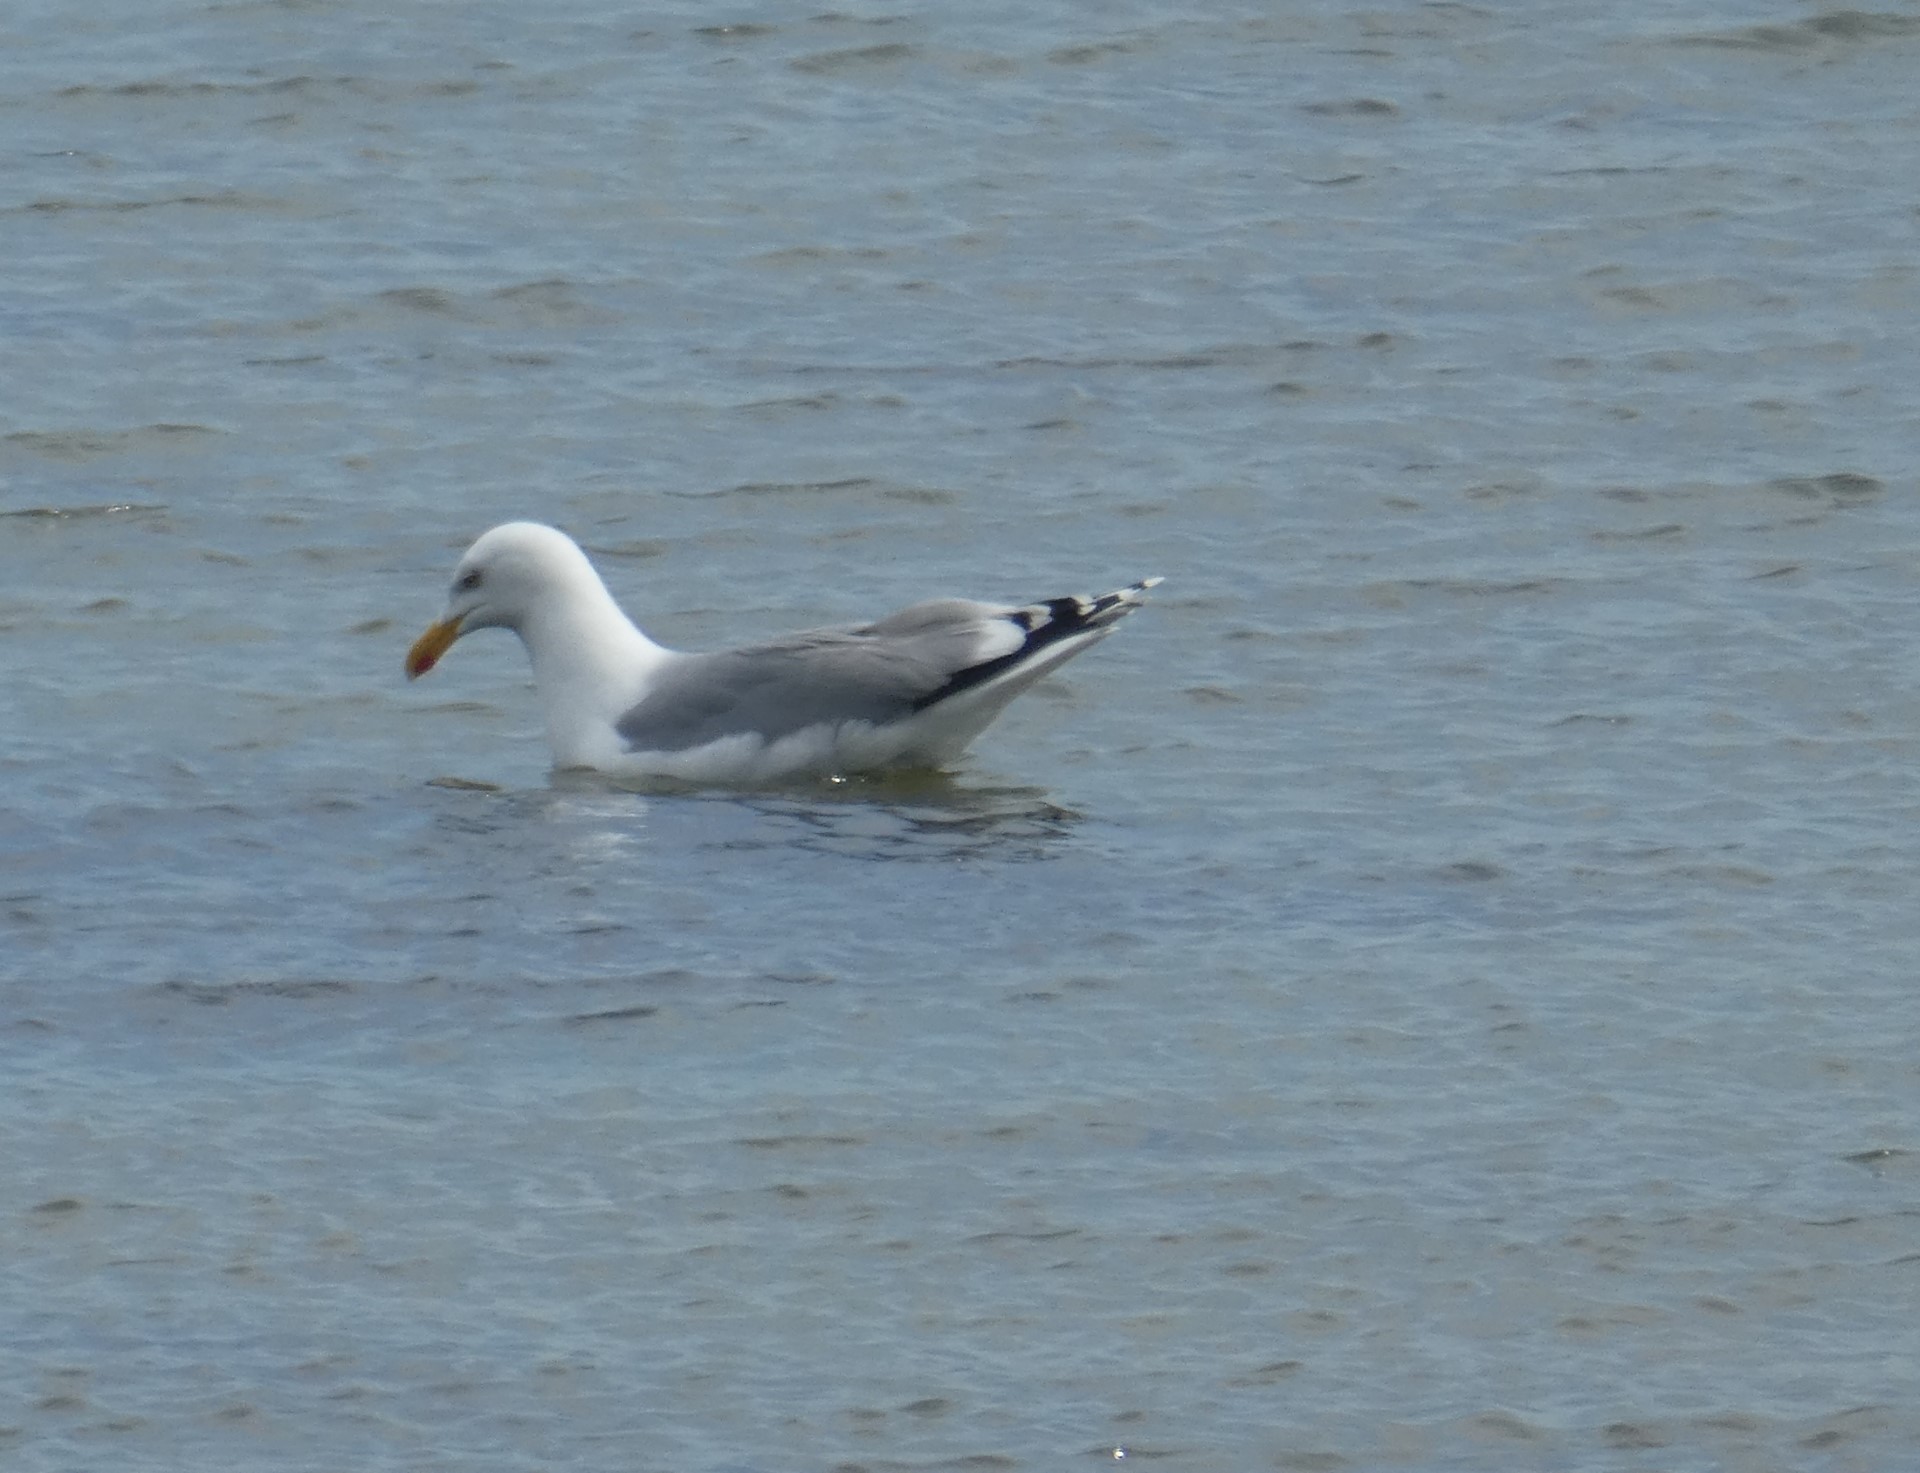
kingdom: Animalia
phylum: Chordata
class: Aves
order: Charadriiformes
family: Laridae
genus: Larus
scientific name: Larus argentatus
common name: Herring gull
